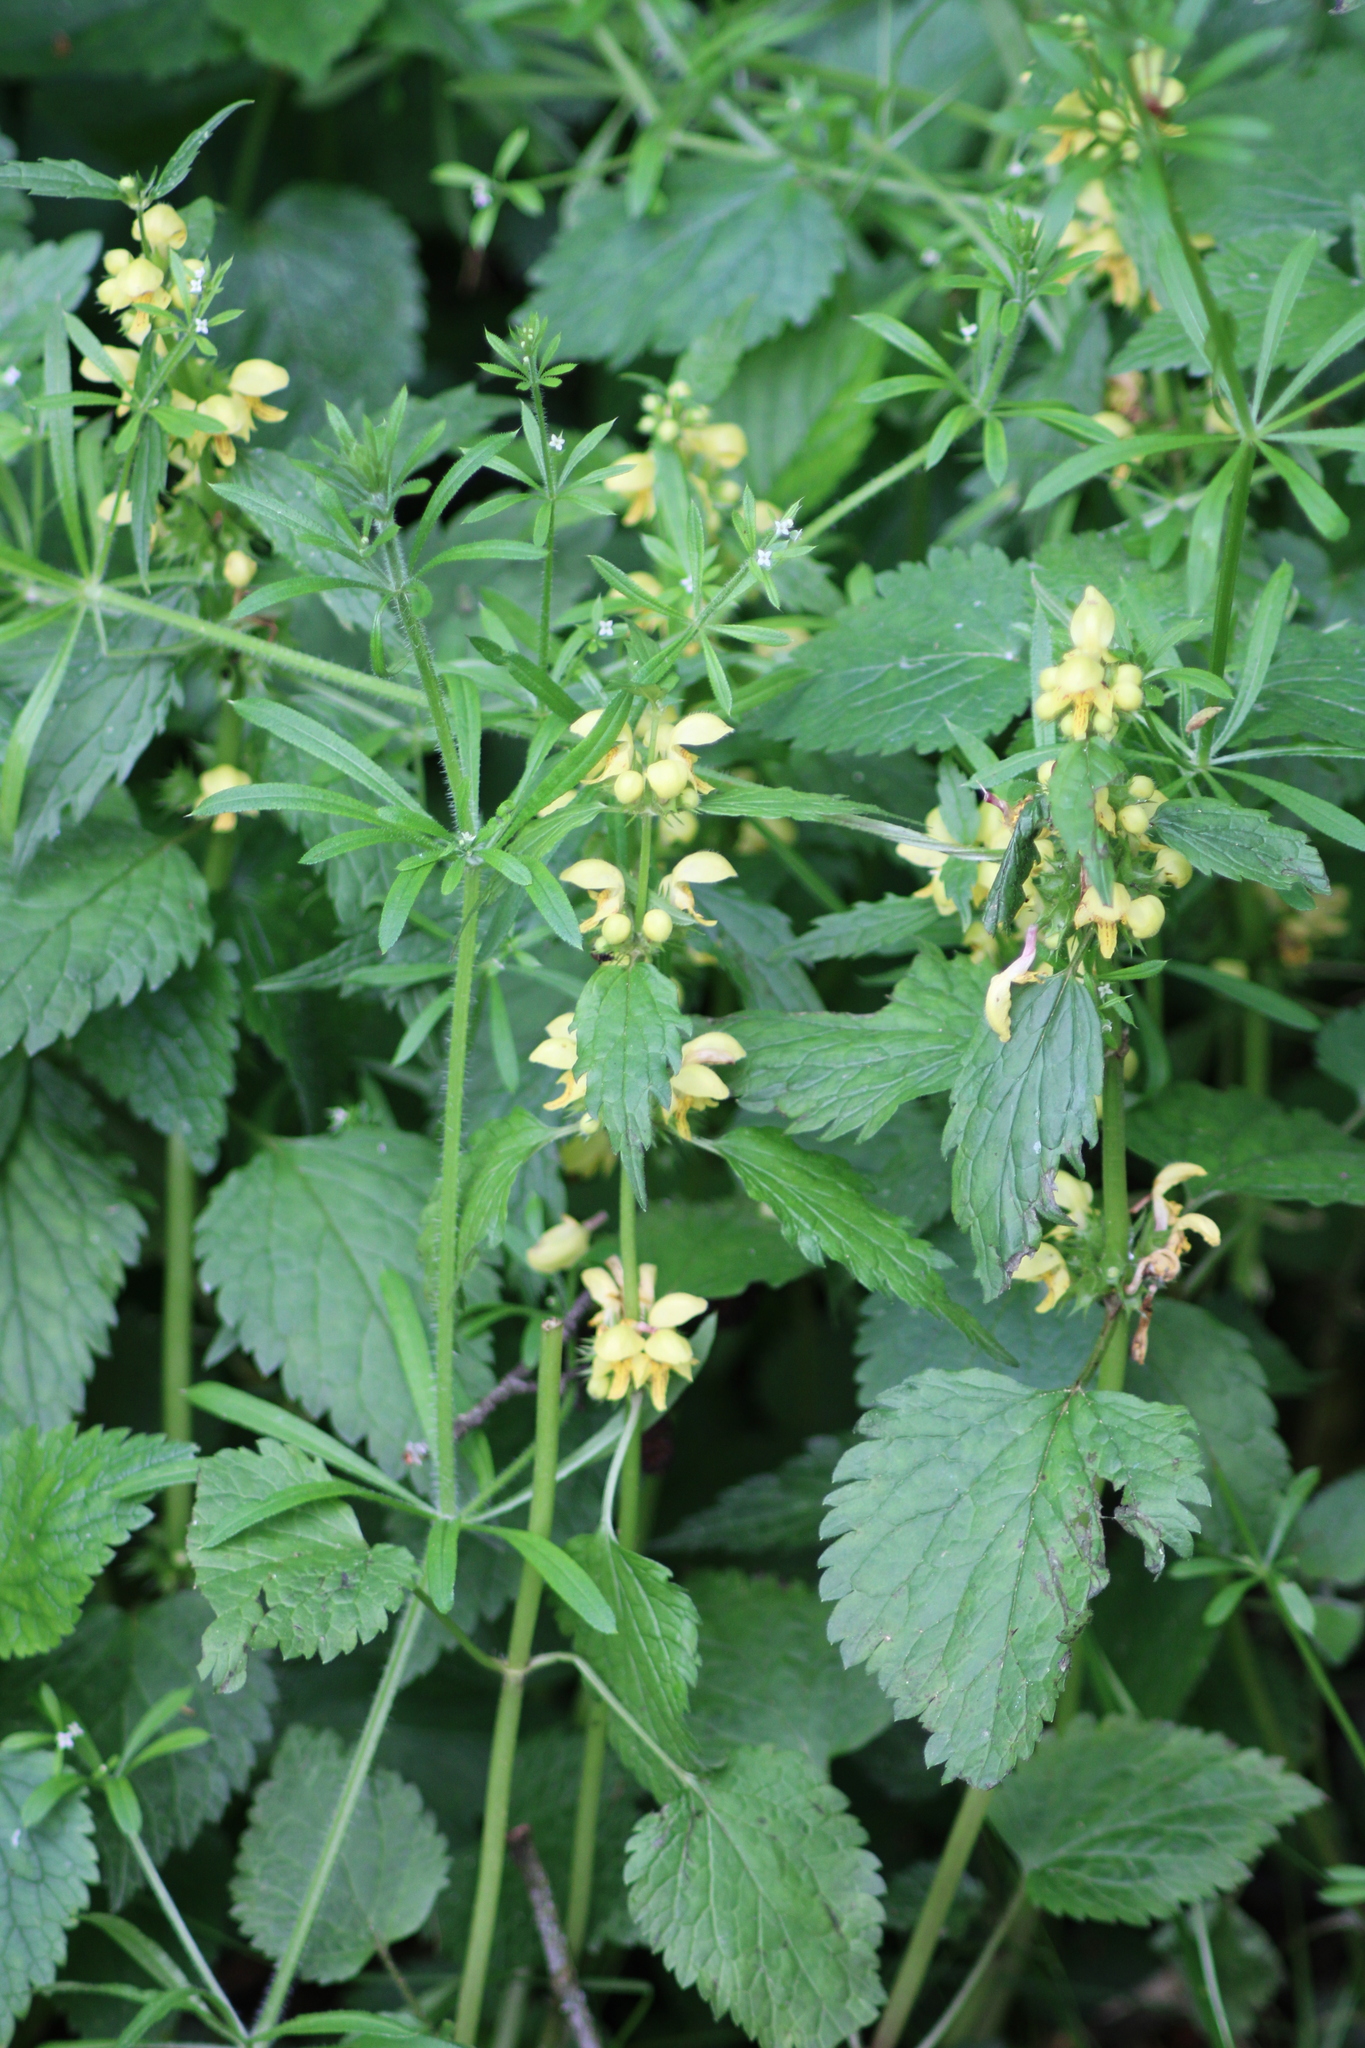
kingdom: Plantae
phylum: Tracheophyta
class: Magnoliopsida
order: Lamiales
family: Lamiaceae
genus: Lamium
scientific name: Lamium galeobdolon
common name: Yellow archangel
